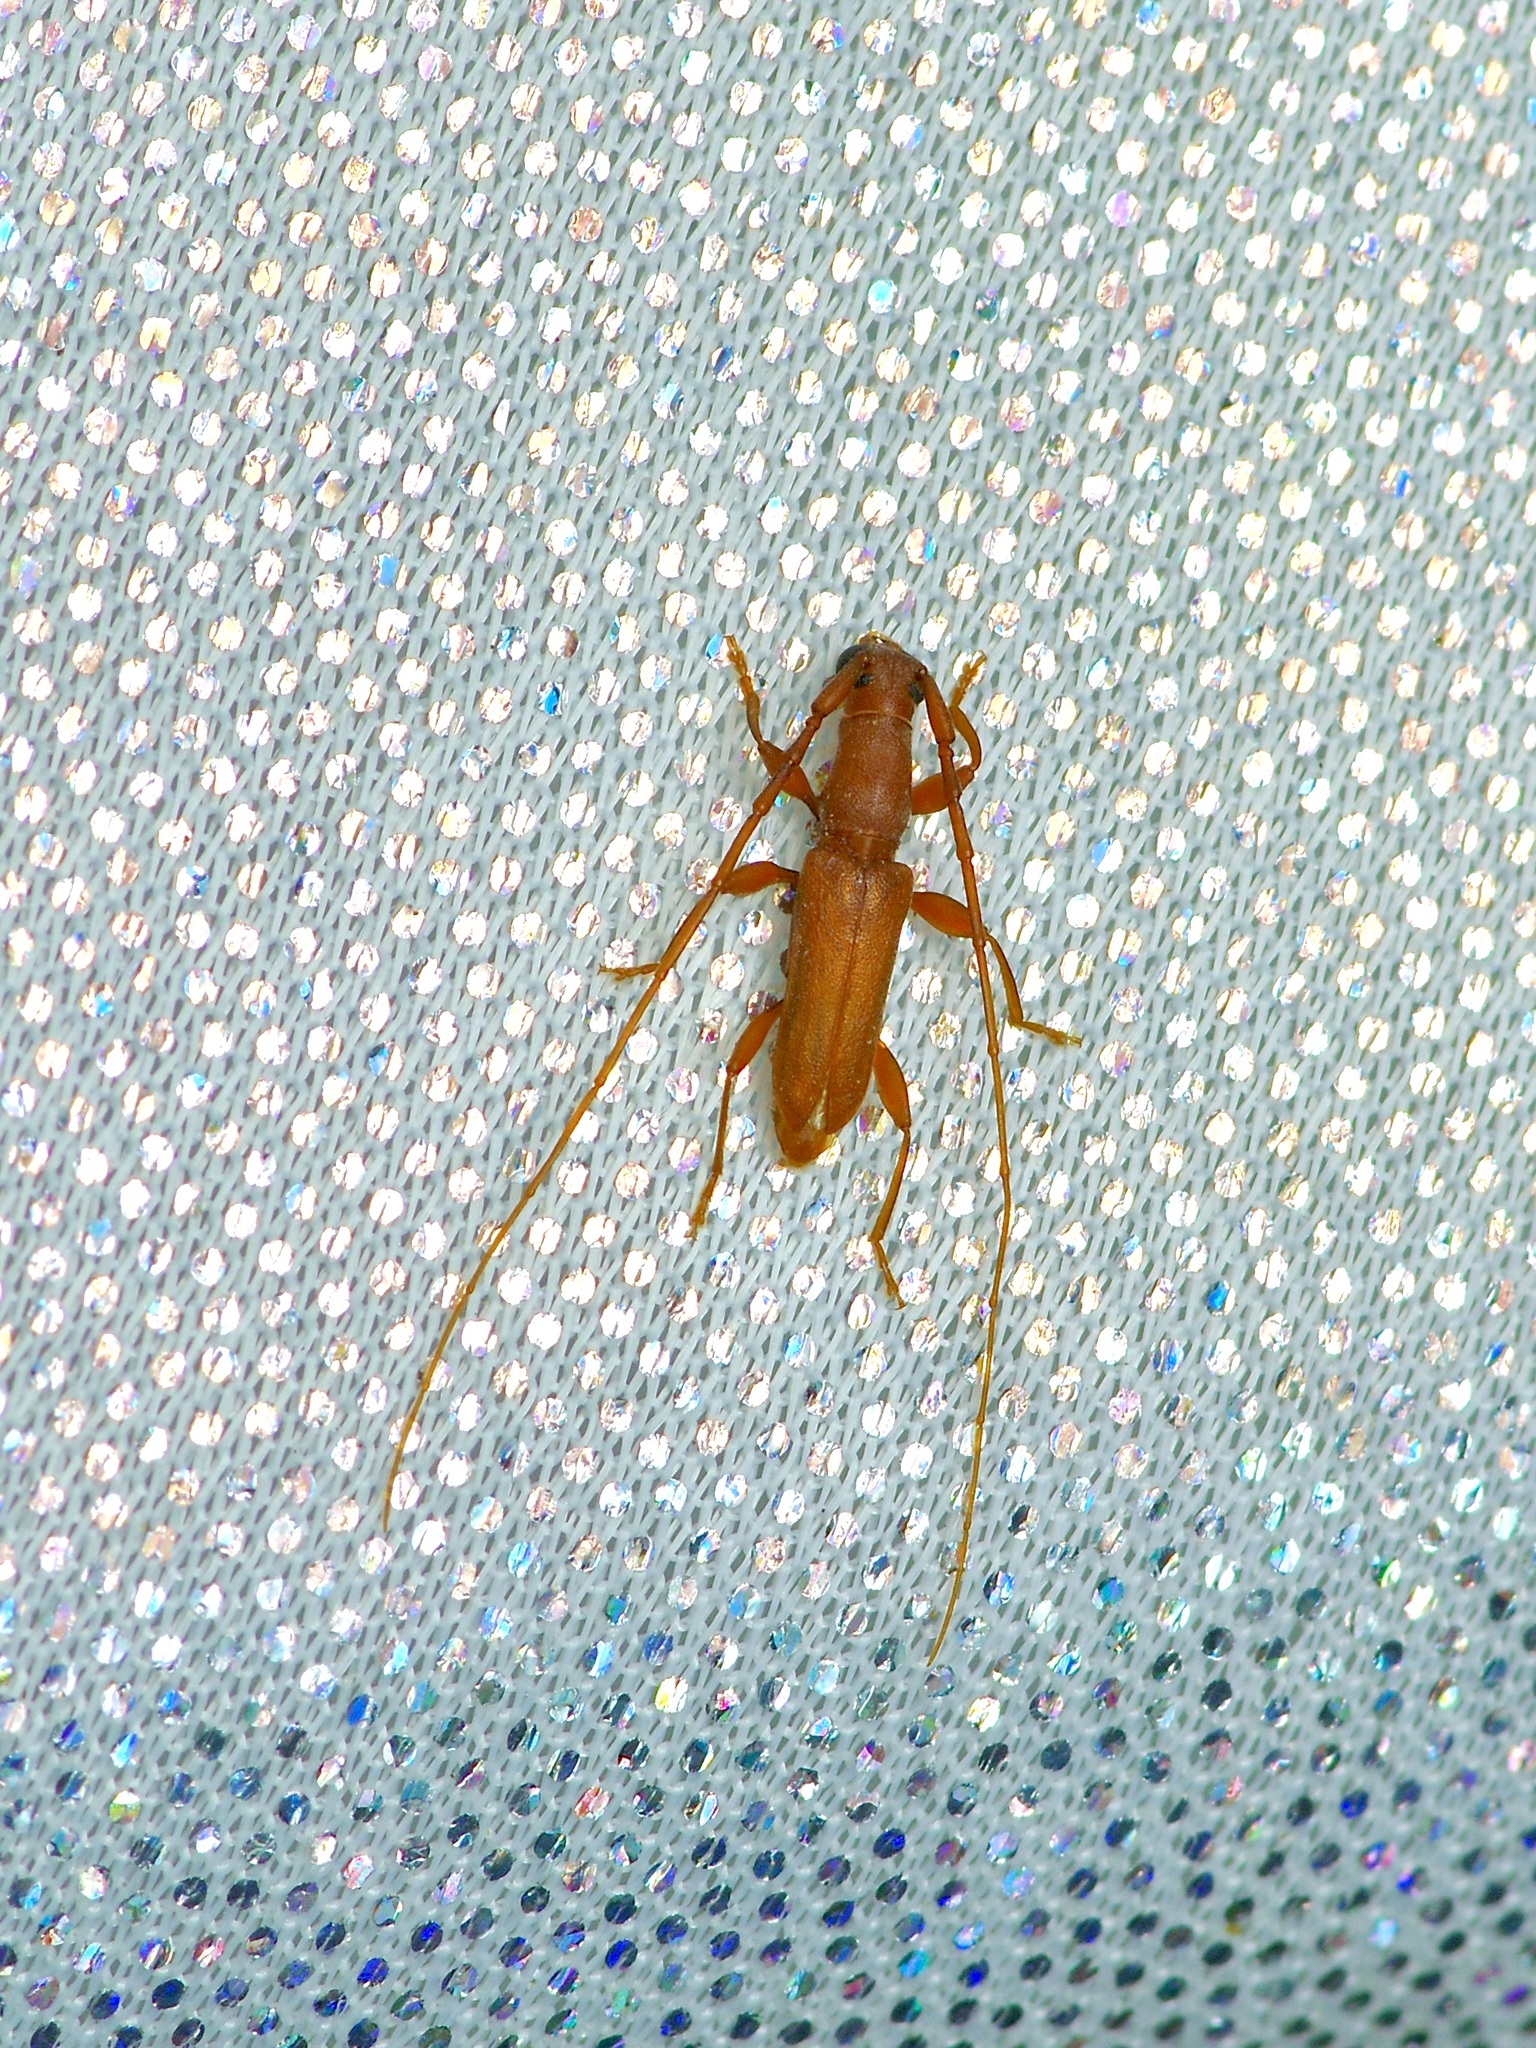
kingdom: Animalia
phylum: Arthropoda
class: Insecta
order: Coleoptera
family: Cerambycidae
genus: Hypexilis
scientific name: Hypexilis pallida
